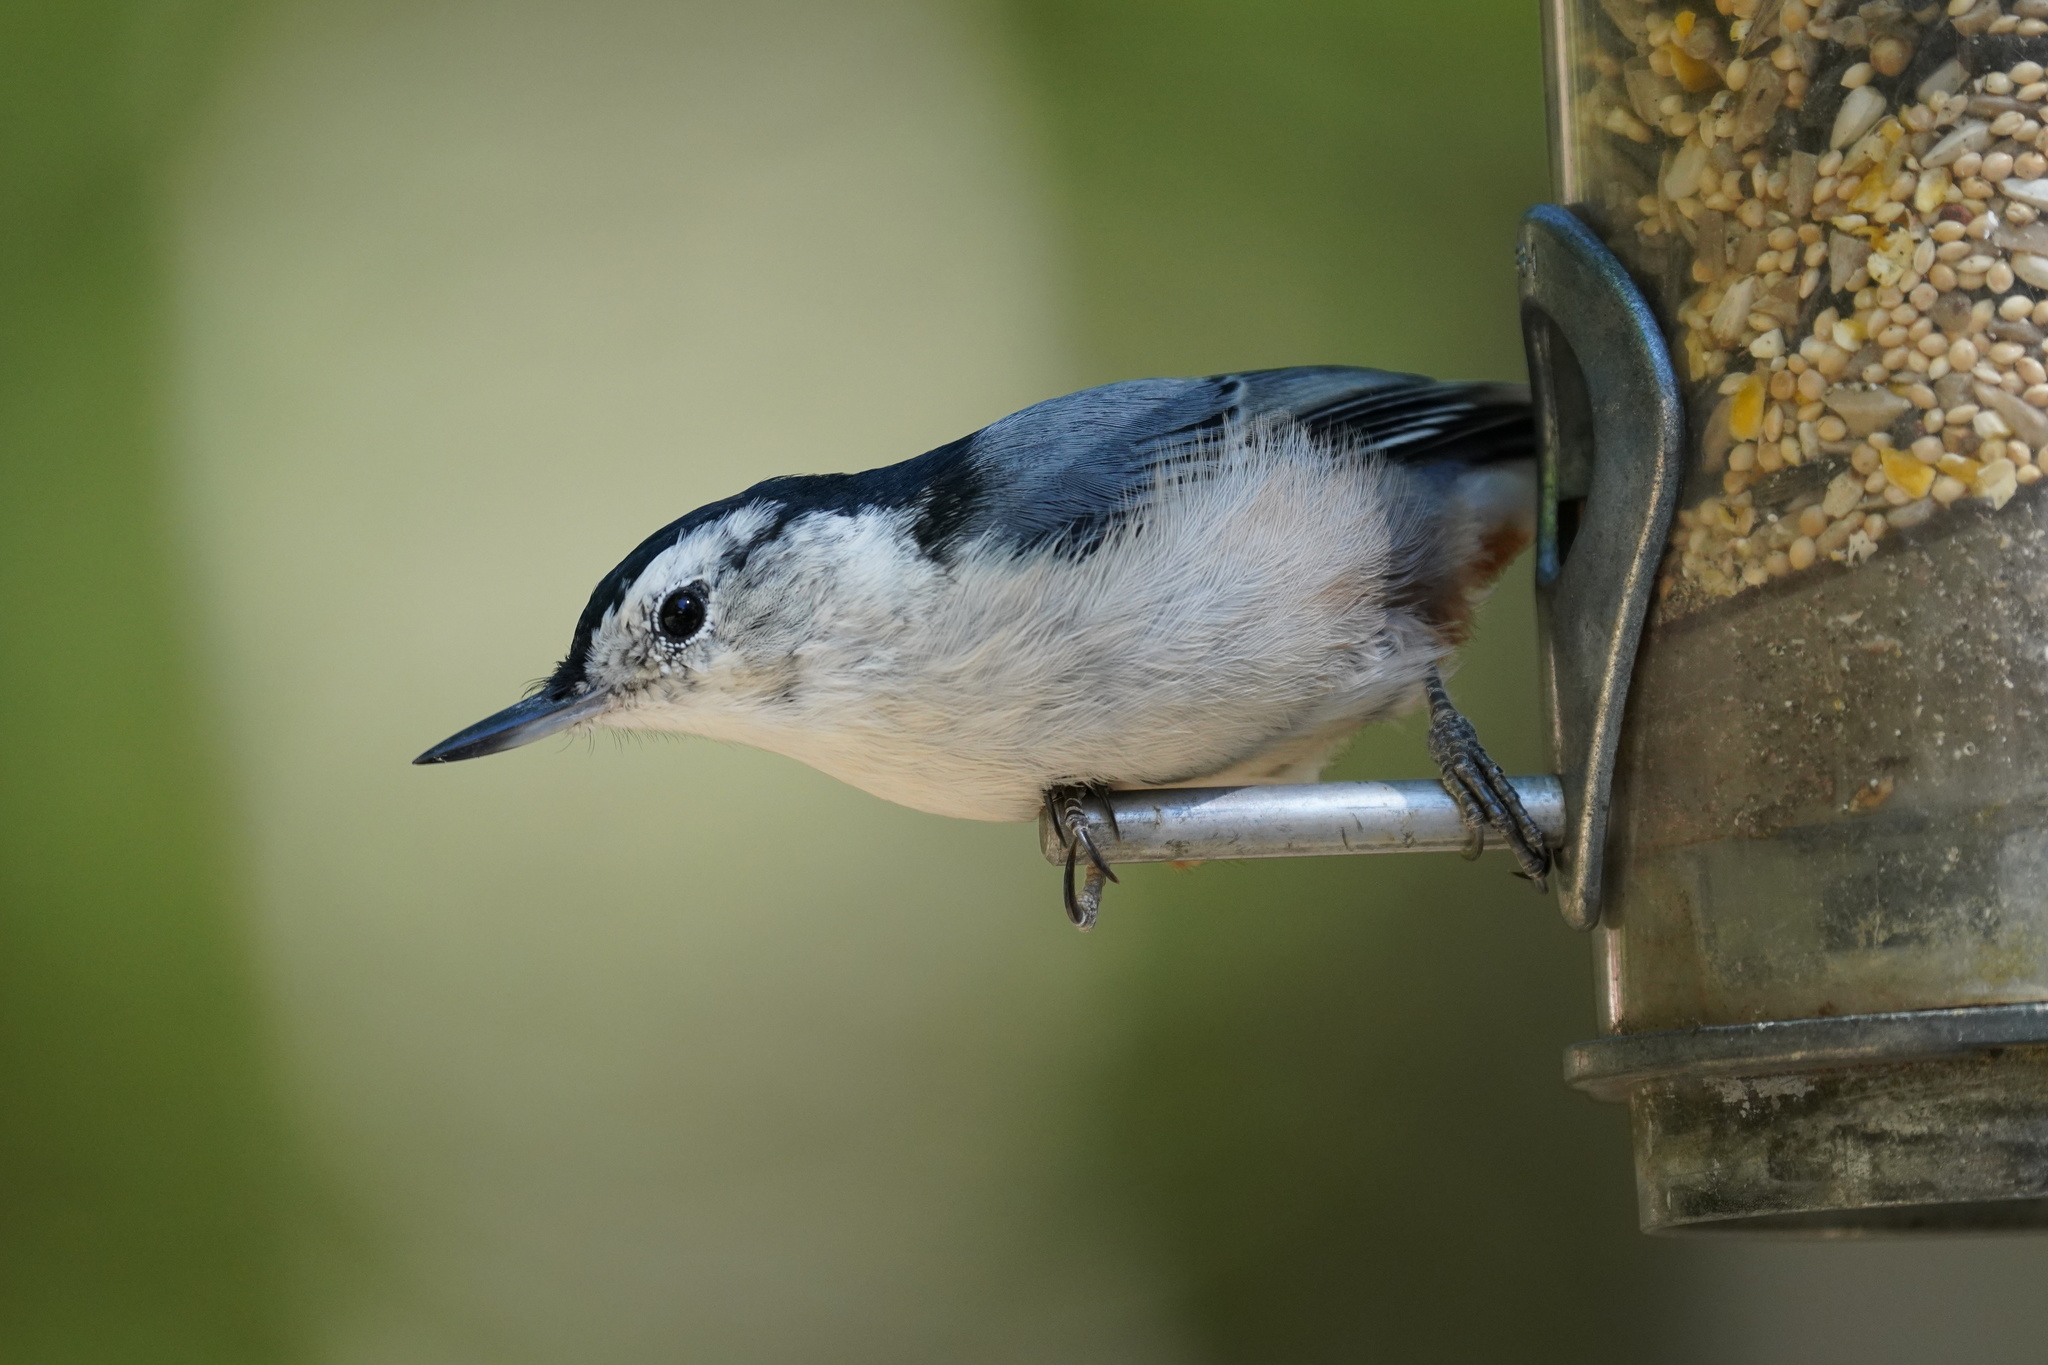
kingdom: Animalia
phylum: Chordata
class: Aves
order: Passeriformes
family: Sittidae
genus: Sitta
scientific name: Sitta carolinensis
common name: White-breasted nuthatch
